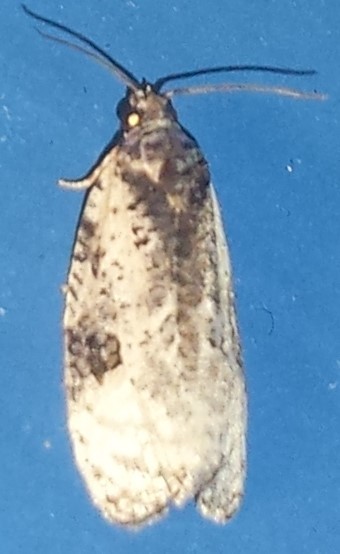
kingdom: Animalia
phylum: Arthropoda
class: Insecta
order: Lepidoptera
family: Tortricidae
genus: Apotomis
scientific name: Apotomis albeolana
